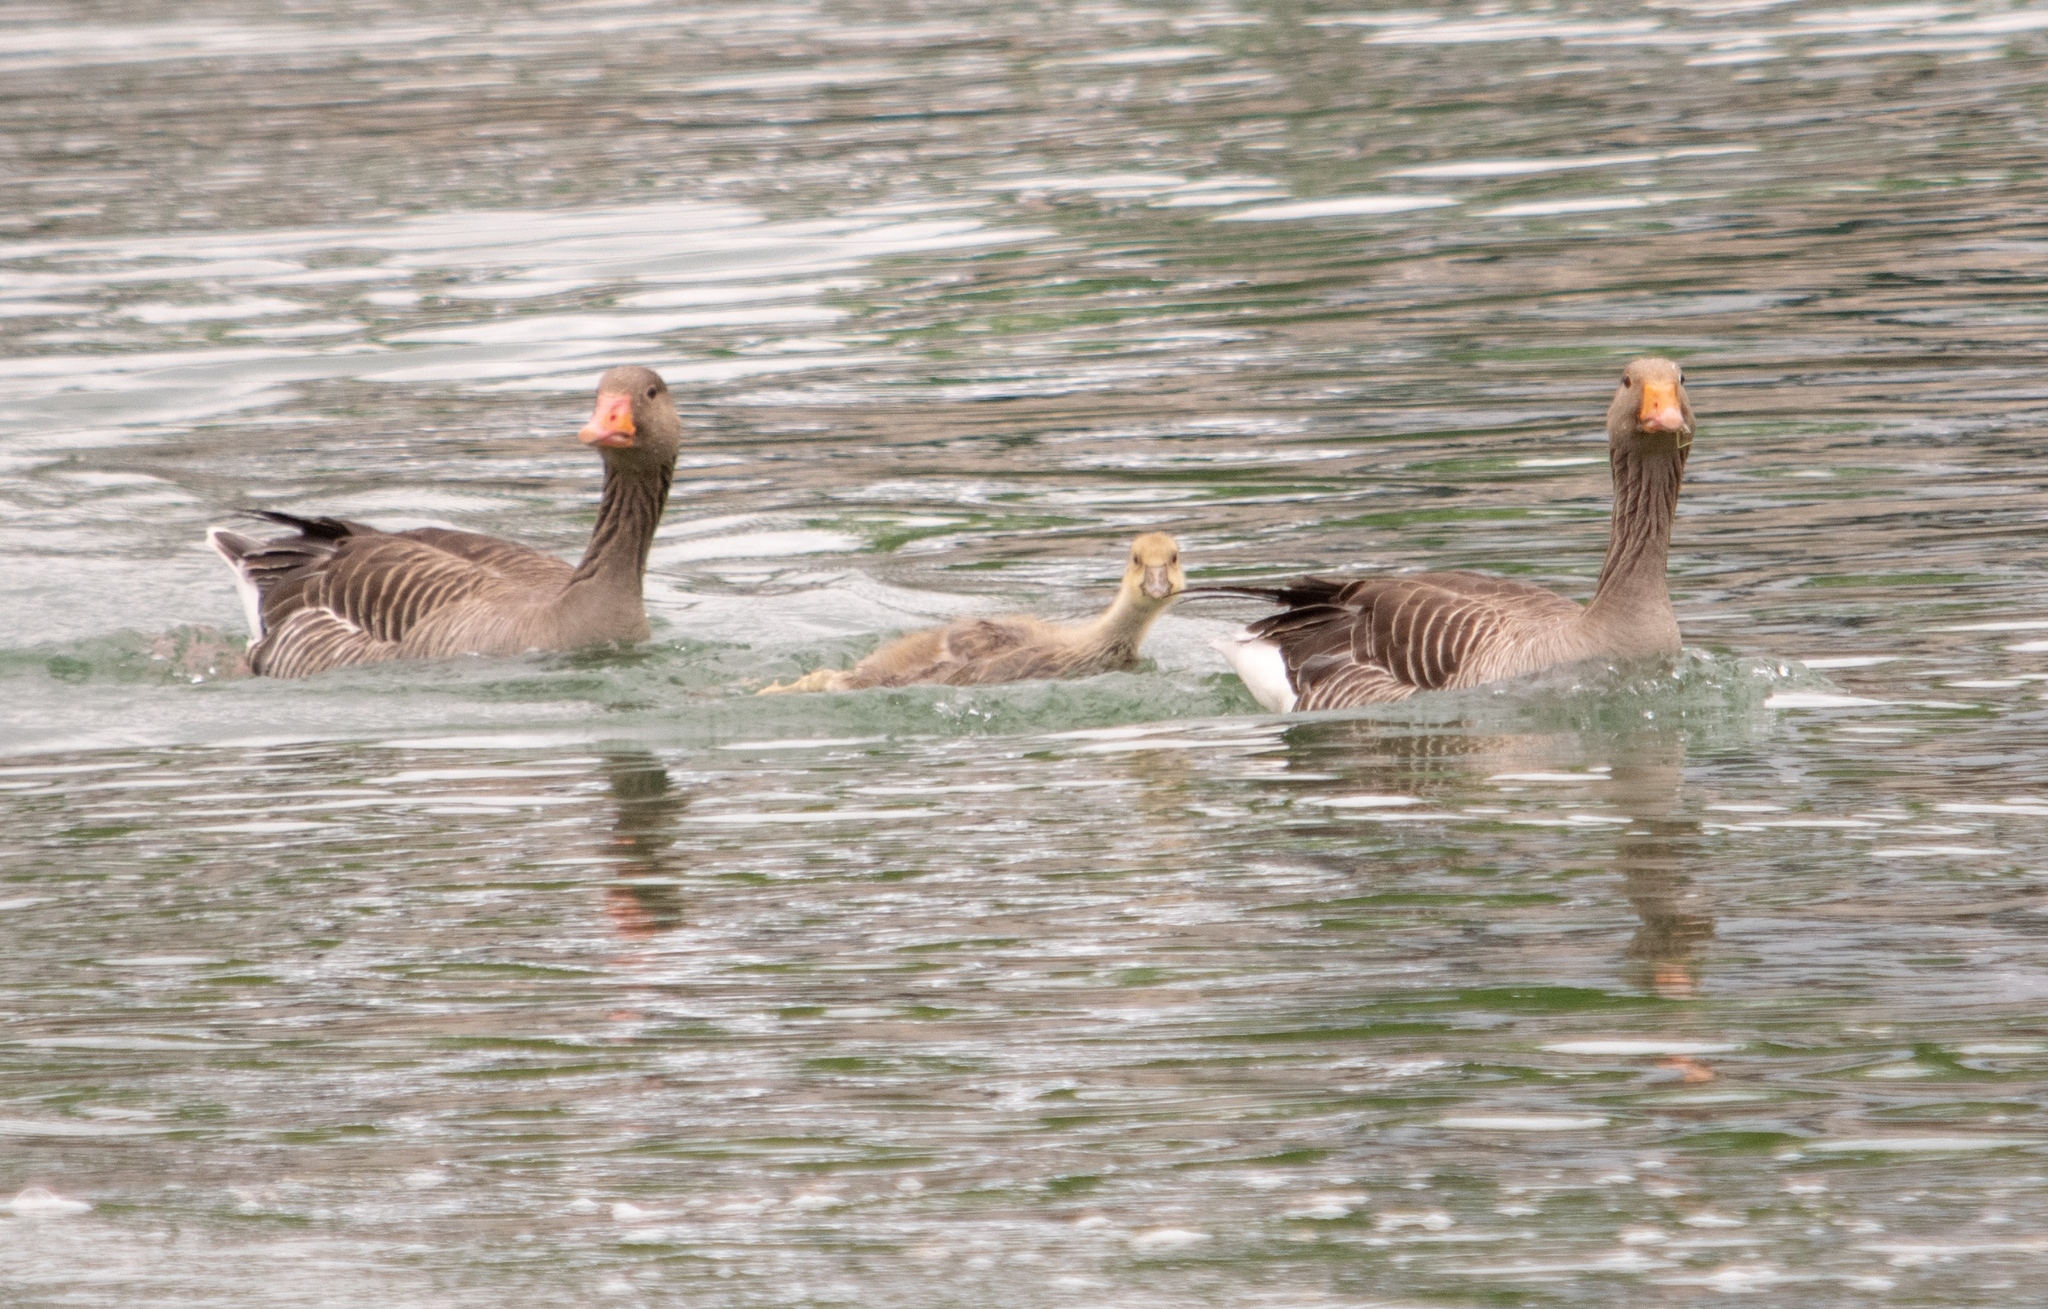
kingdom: Animalia
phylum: Chordata
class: Aves
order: Anseriformes
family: Anatidae
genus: Anser
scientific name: Anser anser
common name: Greylag goose
